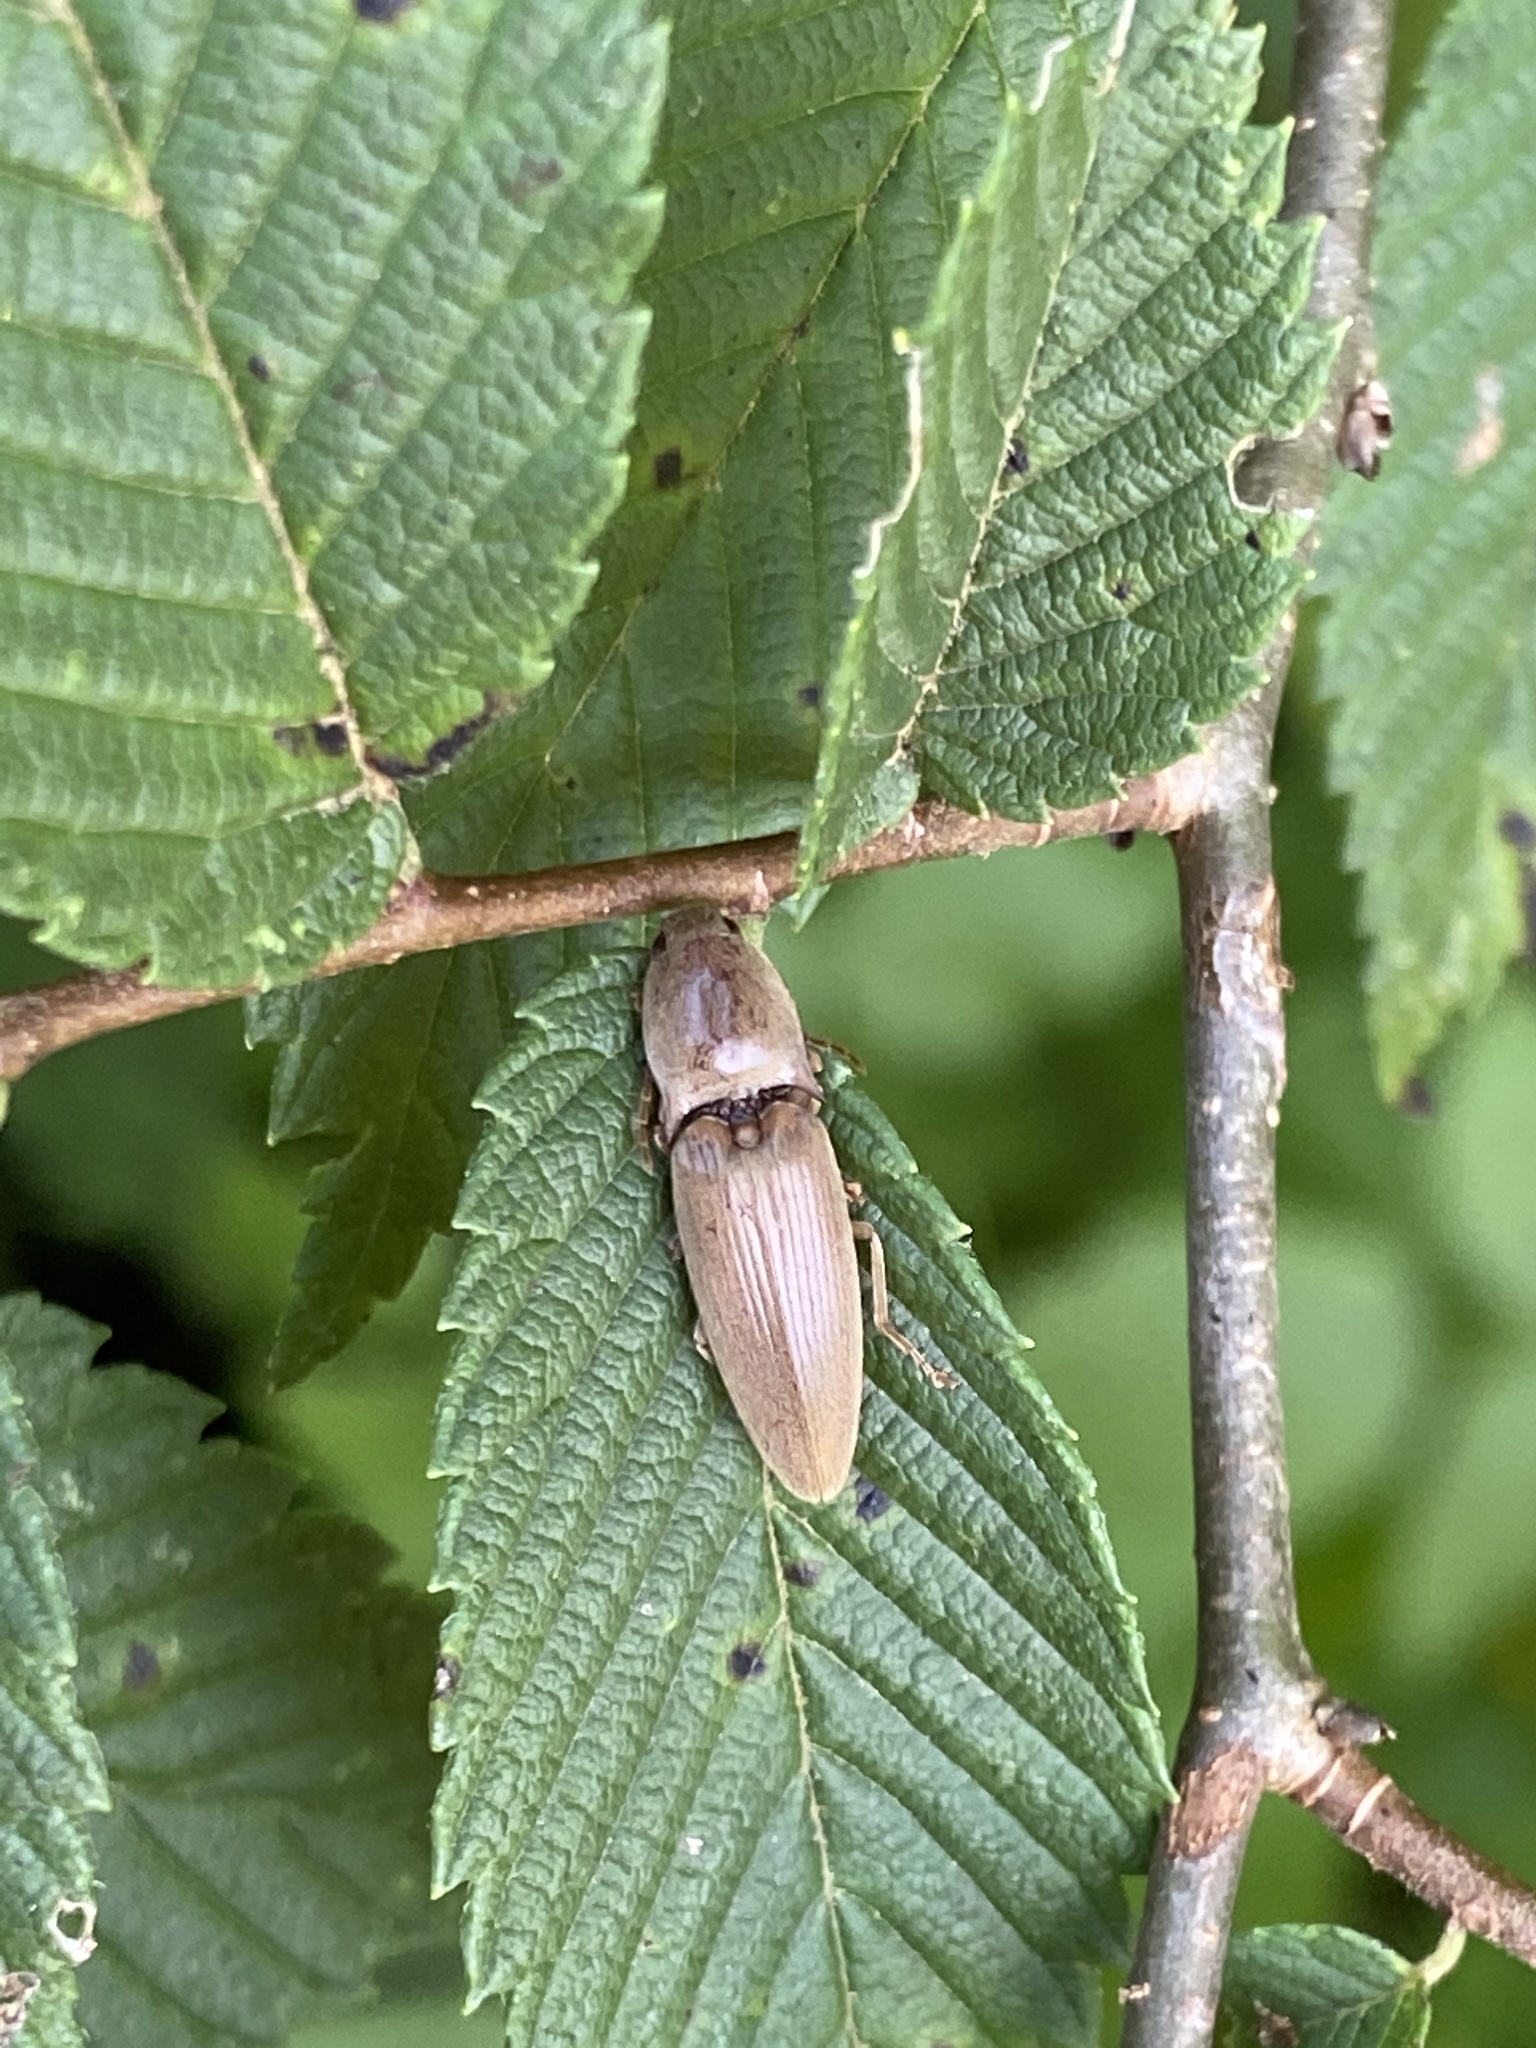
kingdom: Animalia
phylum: Arthropoda
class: Insecta
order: Coleoptera
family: Elateridae
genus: Monocrepidius
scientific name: Monocrepidius lividus
